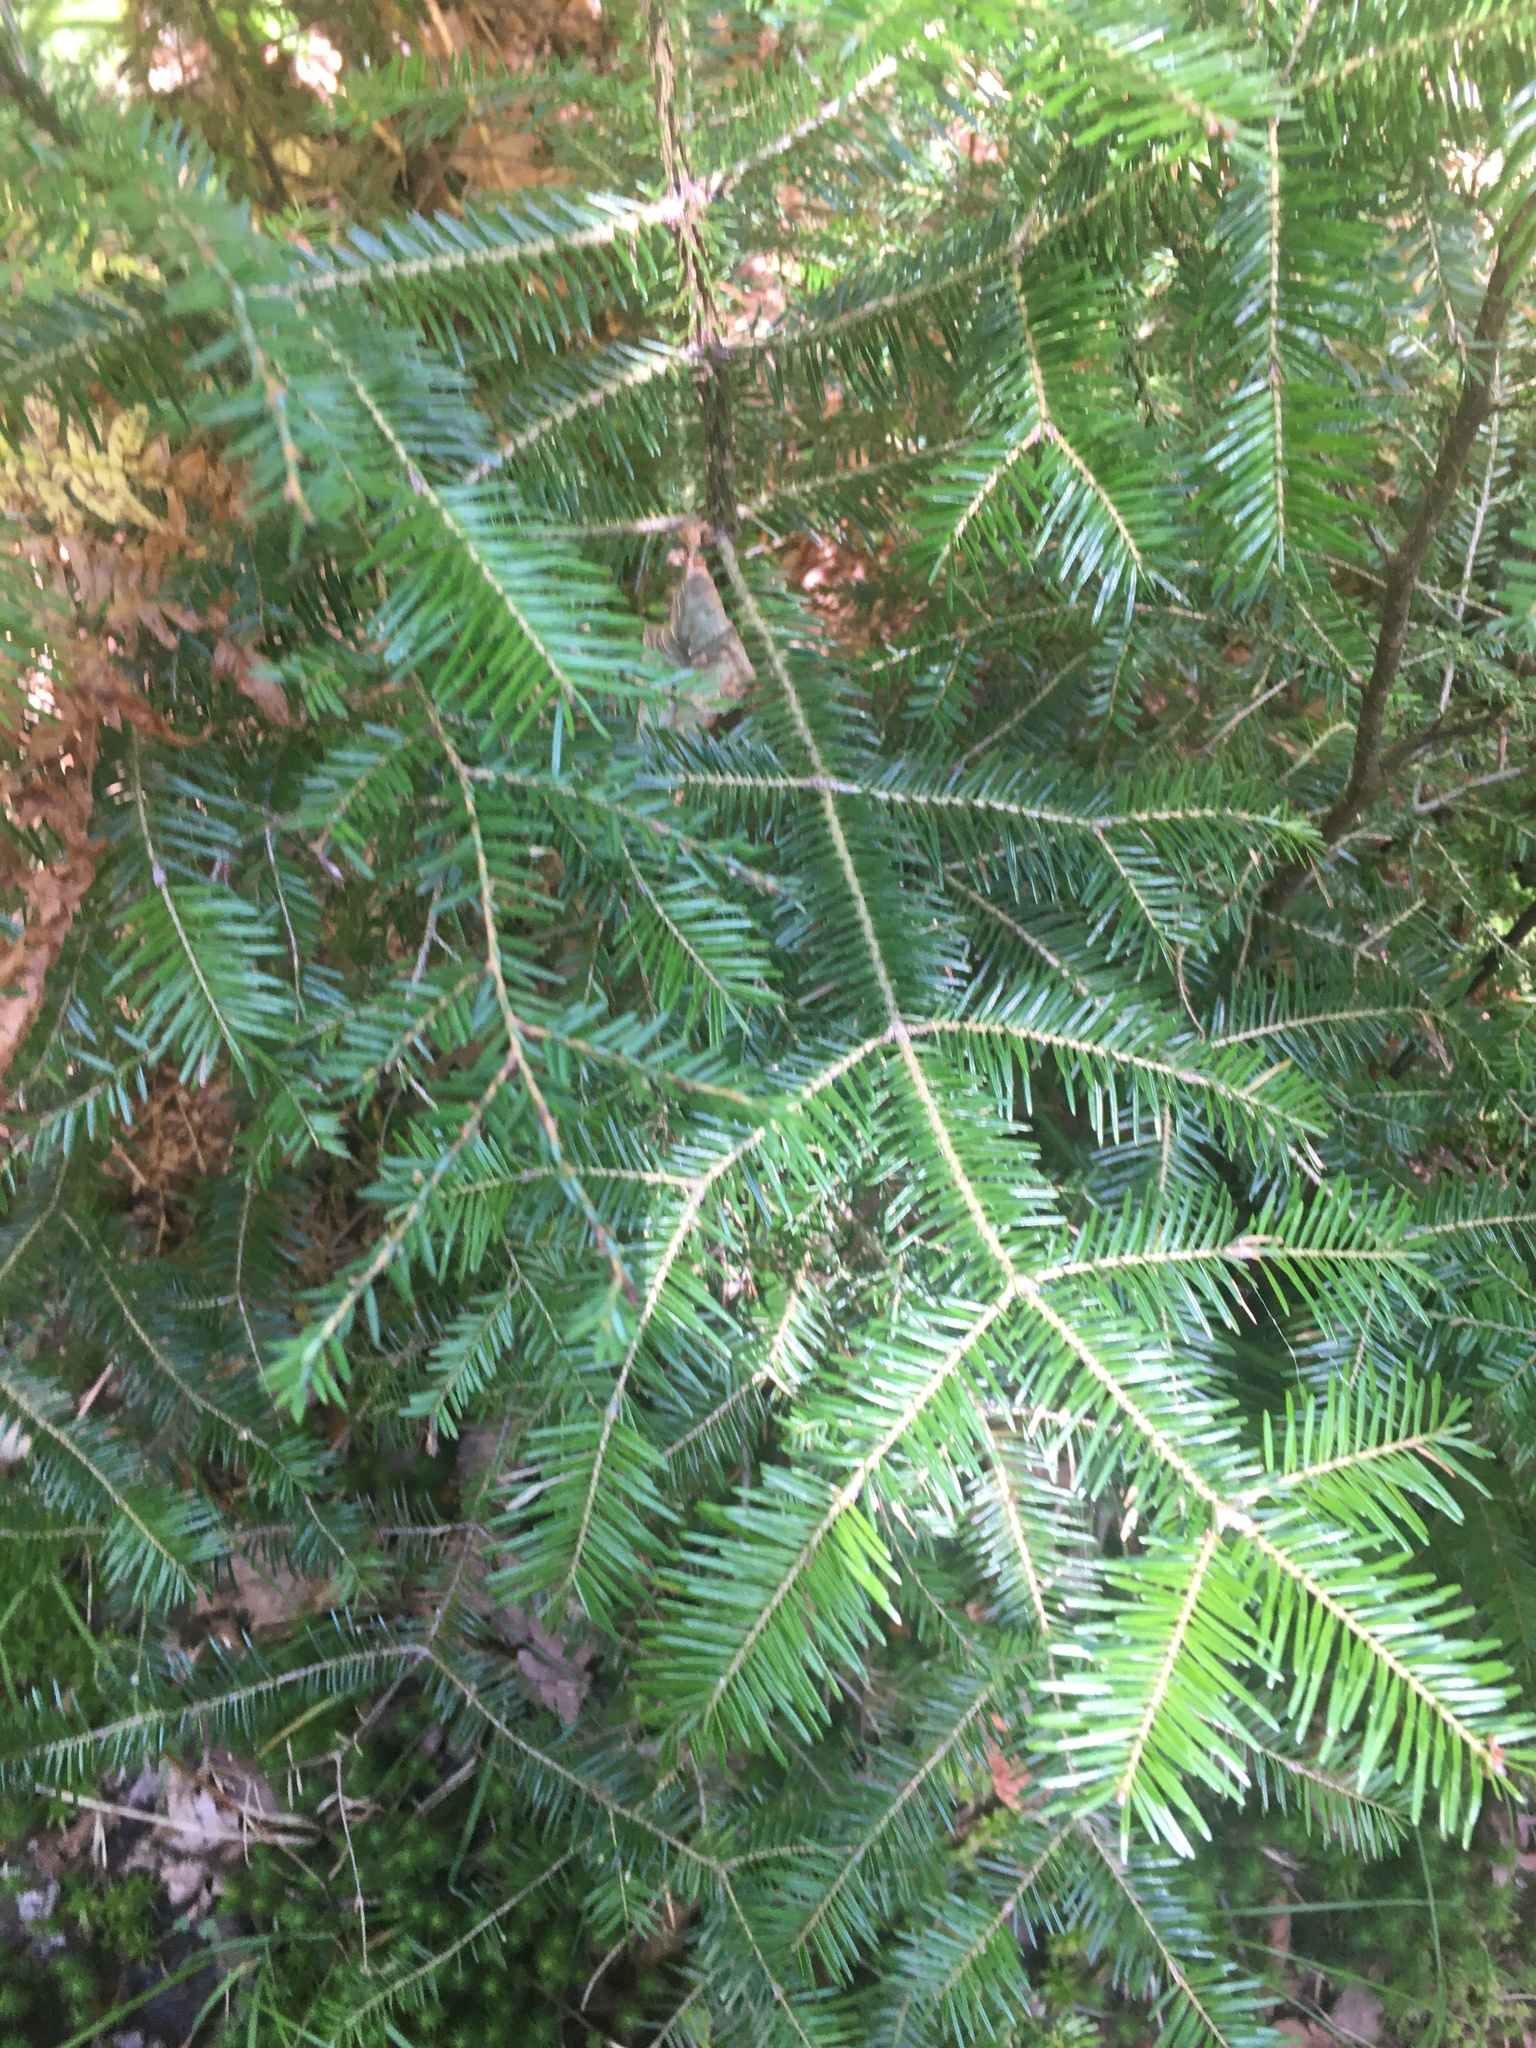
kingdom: Plantae
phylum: Tracheophyta
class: Pinopsida
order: Pinales
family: Pinaceae
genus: Abies
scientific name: Abies balsamea
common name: Balsam fir
